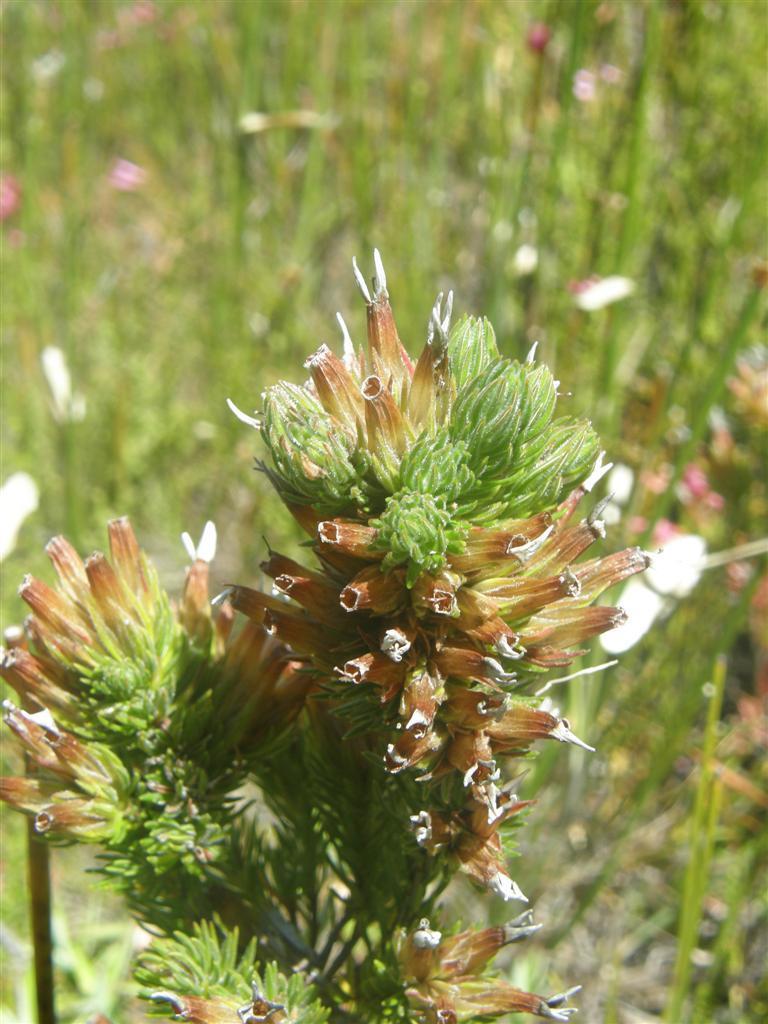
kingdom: Plantae
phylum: Tracheophyta
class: Magnoliopsida
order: Ericales
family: Ericaceae
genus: Erica
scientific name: Erica vallis-gratiae
